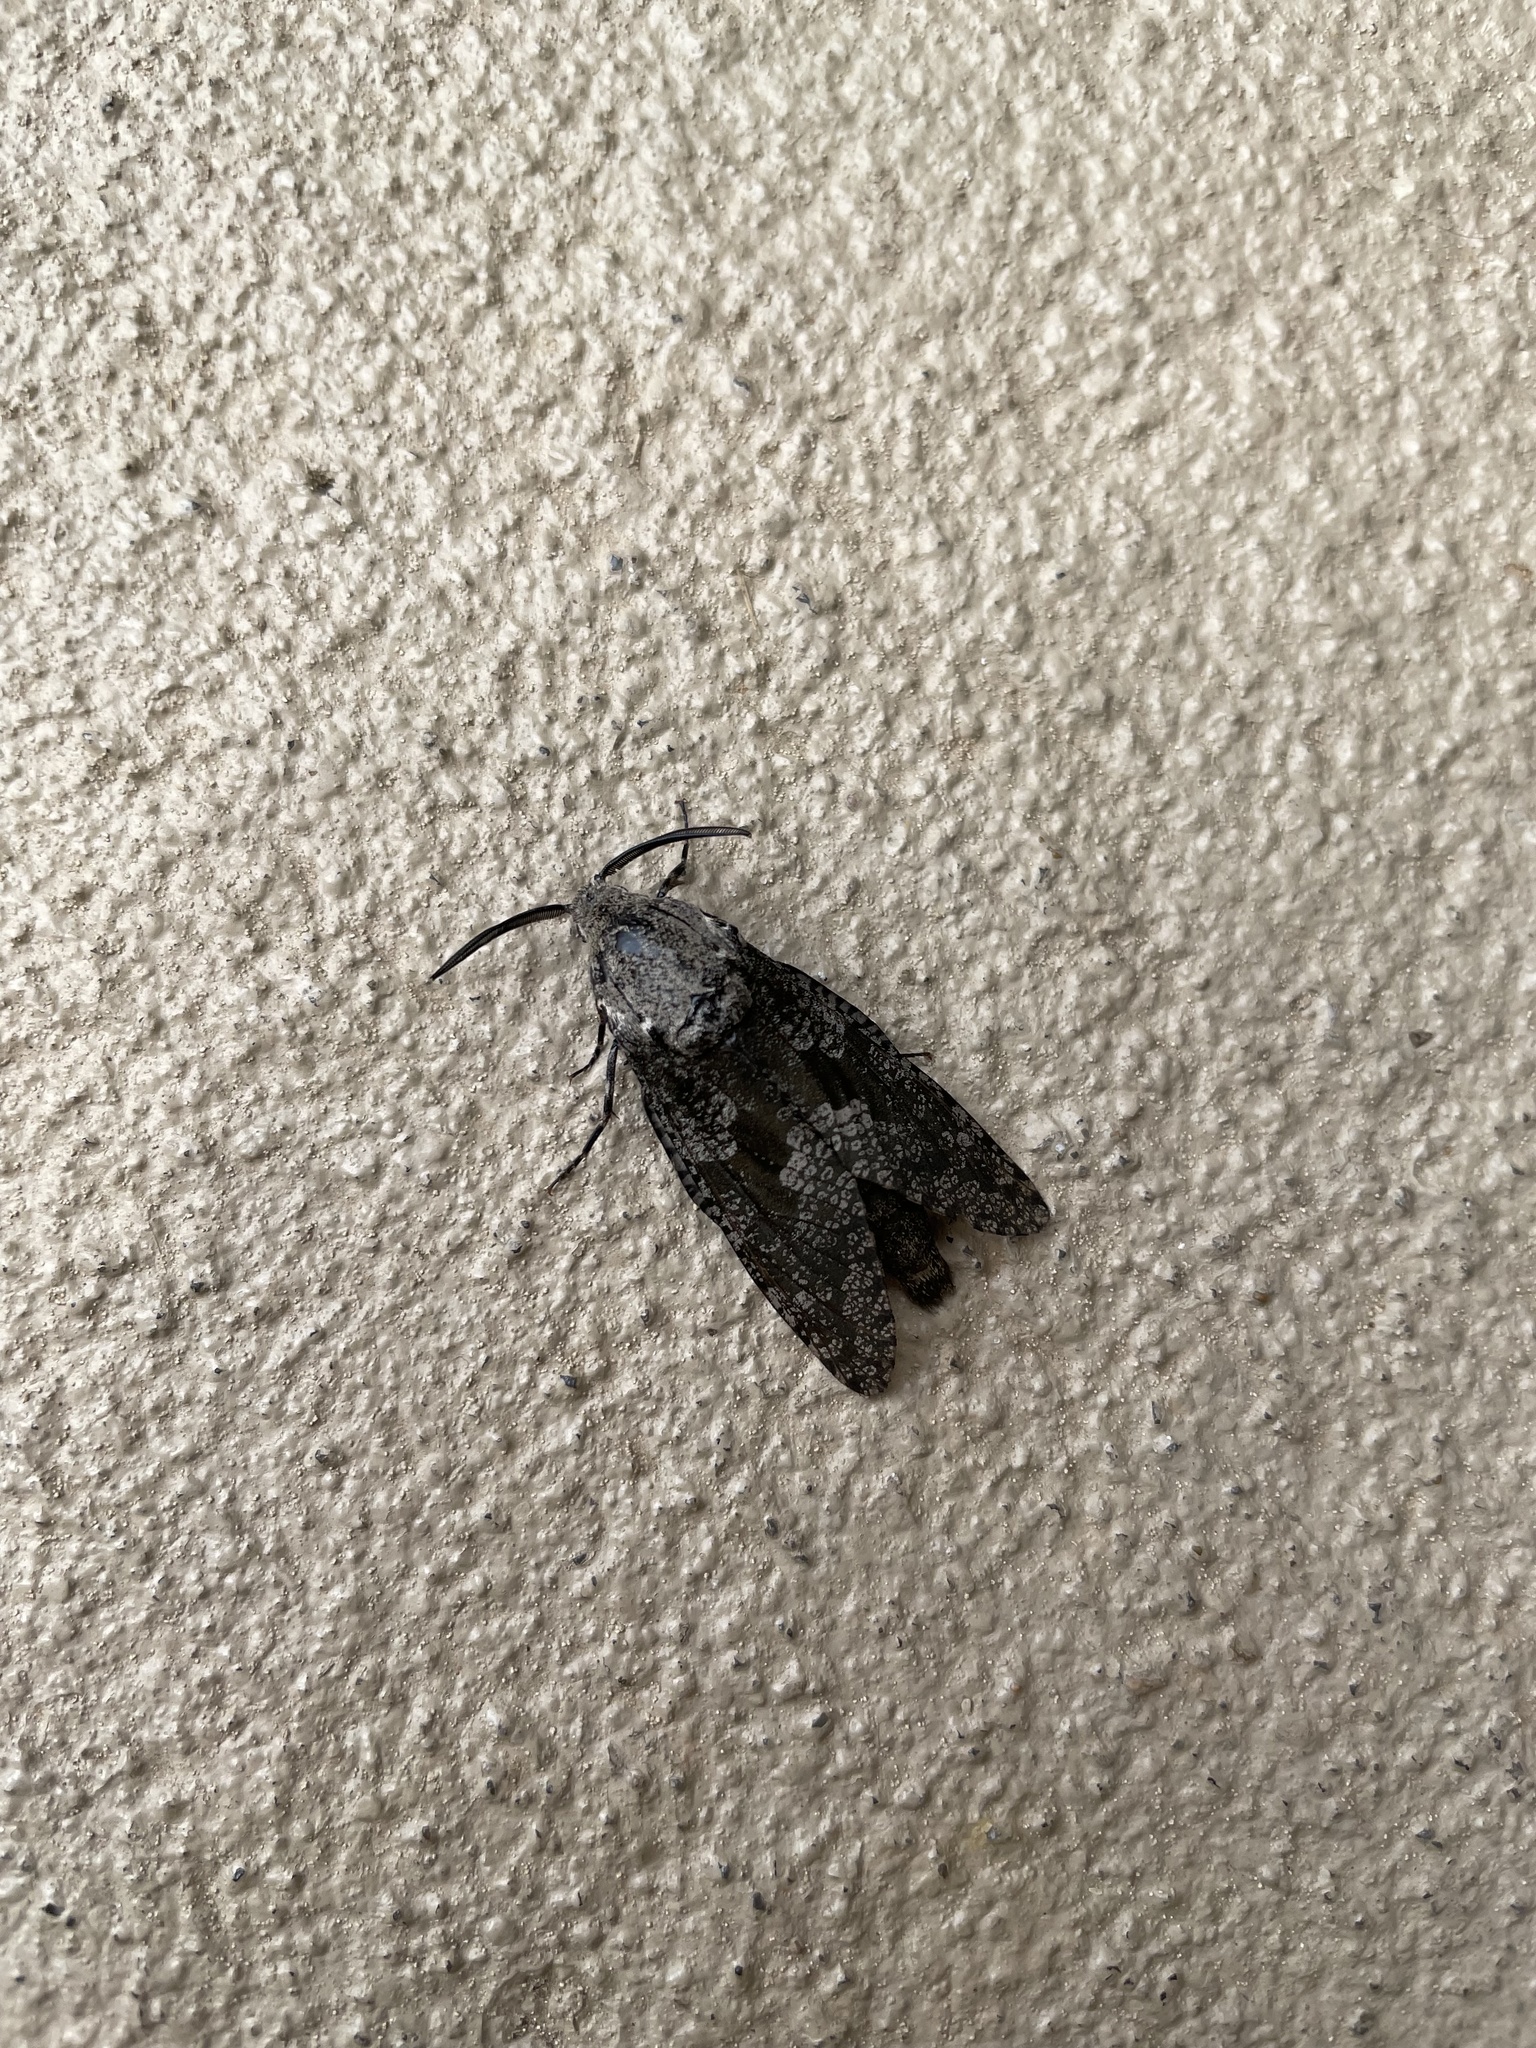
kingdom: Animalia
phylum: Arthropoda
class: Insecta
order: Lepidoptera
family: Cossidae
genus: Prionoxystus
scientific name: Prionoxystus robiniae
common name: Carpenterworm
